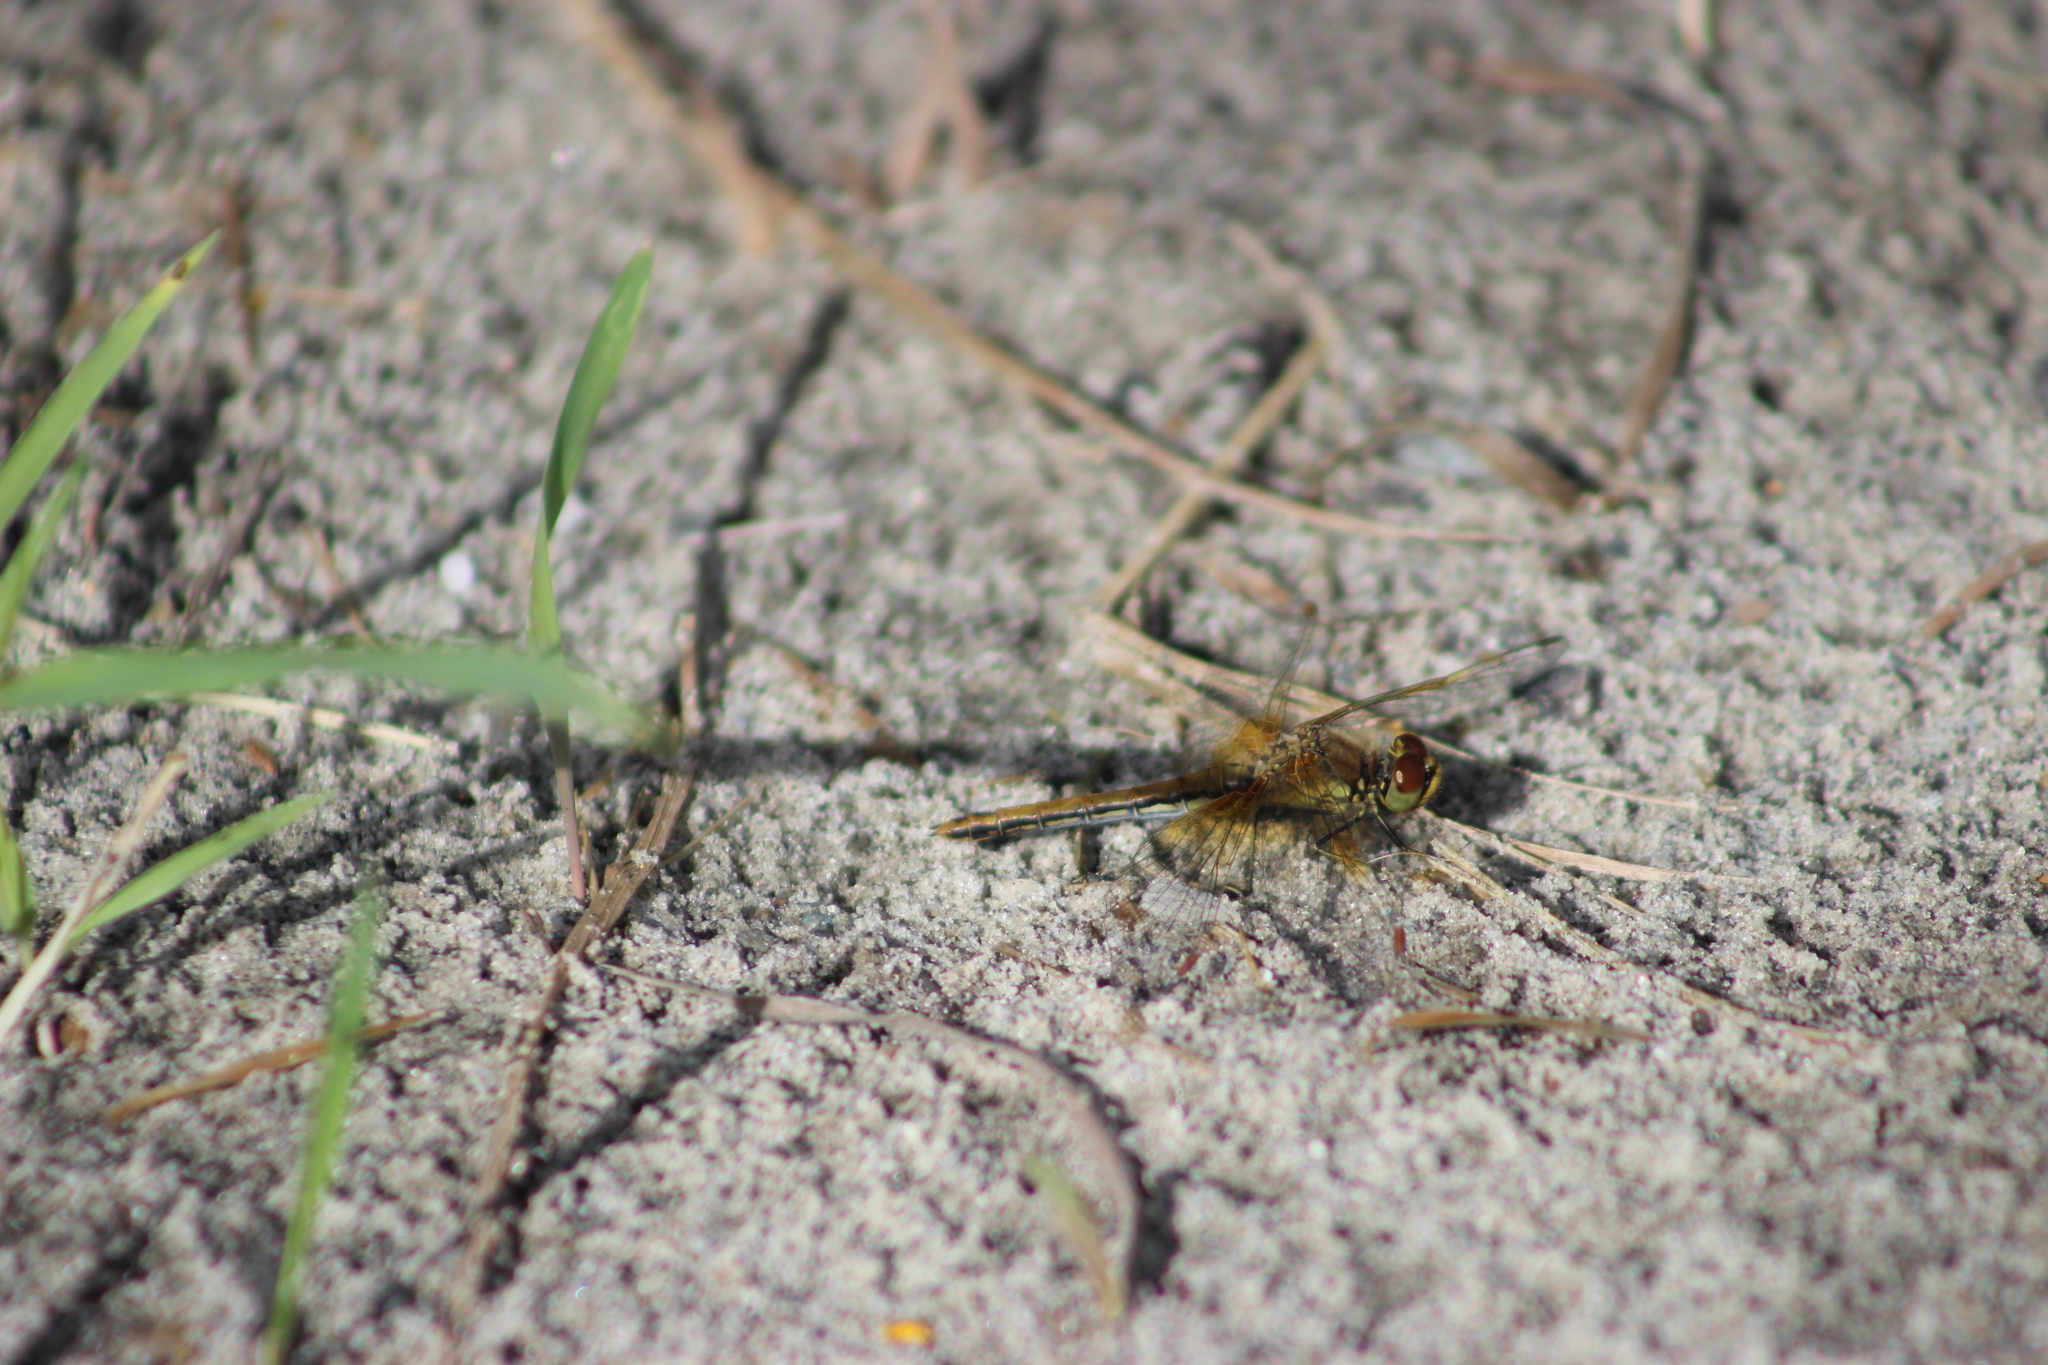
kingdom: Animalia
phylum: Arthropoda
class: Insecta
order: Odonata
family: Libellulidae
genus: Sympetrum
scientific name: Sympetrum flaveolum
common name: Yellow-winged darter
